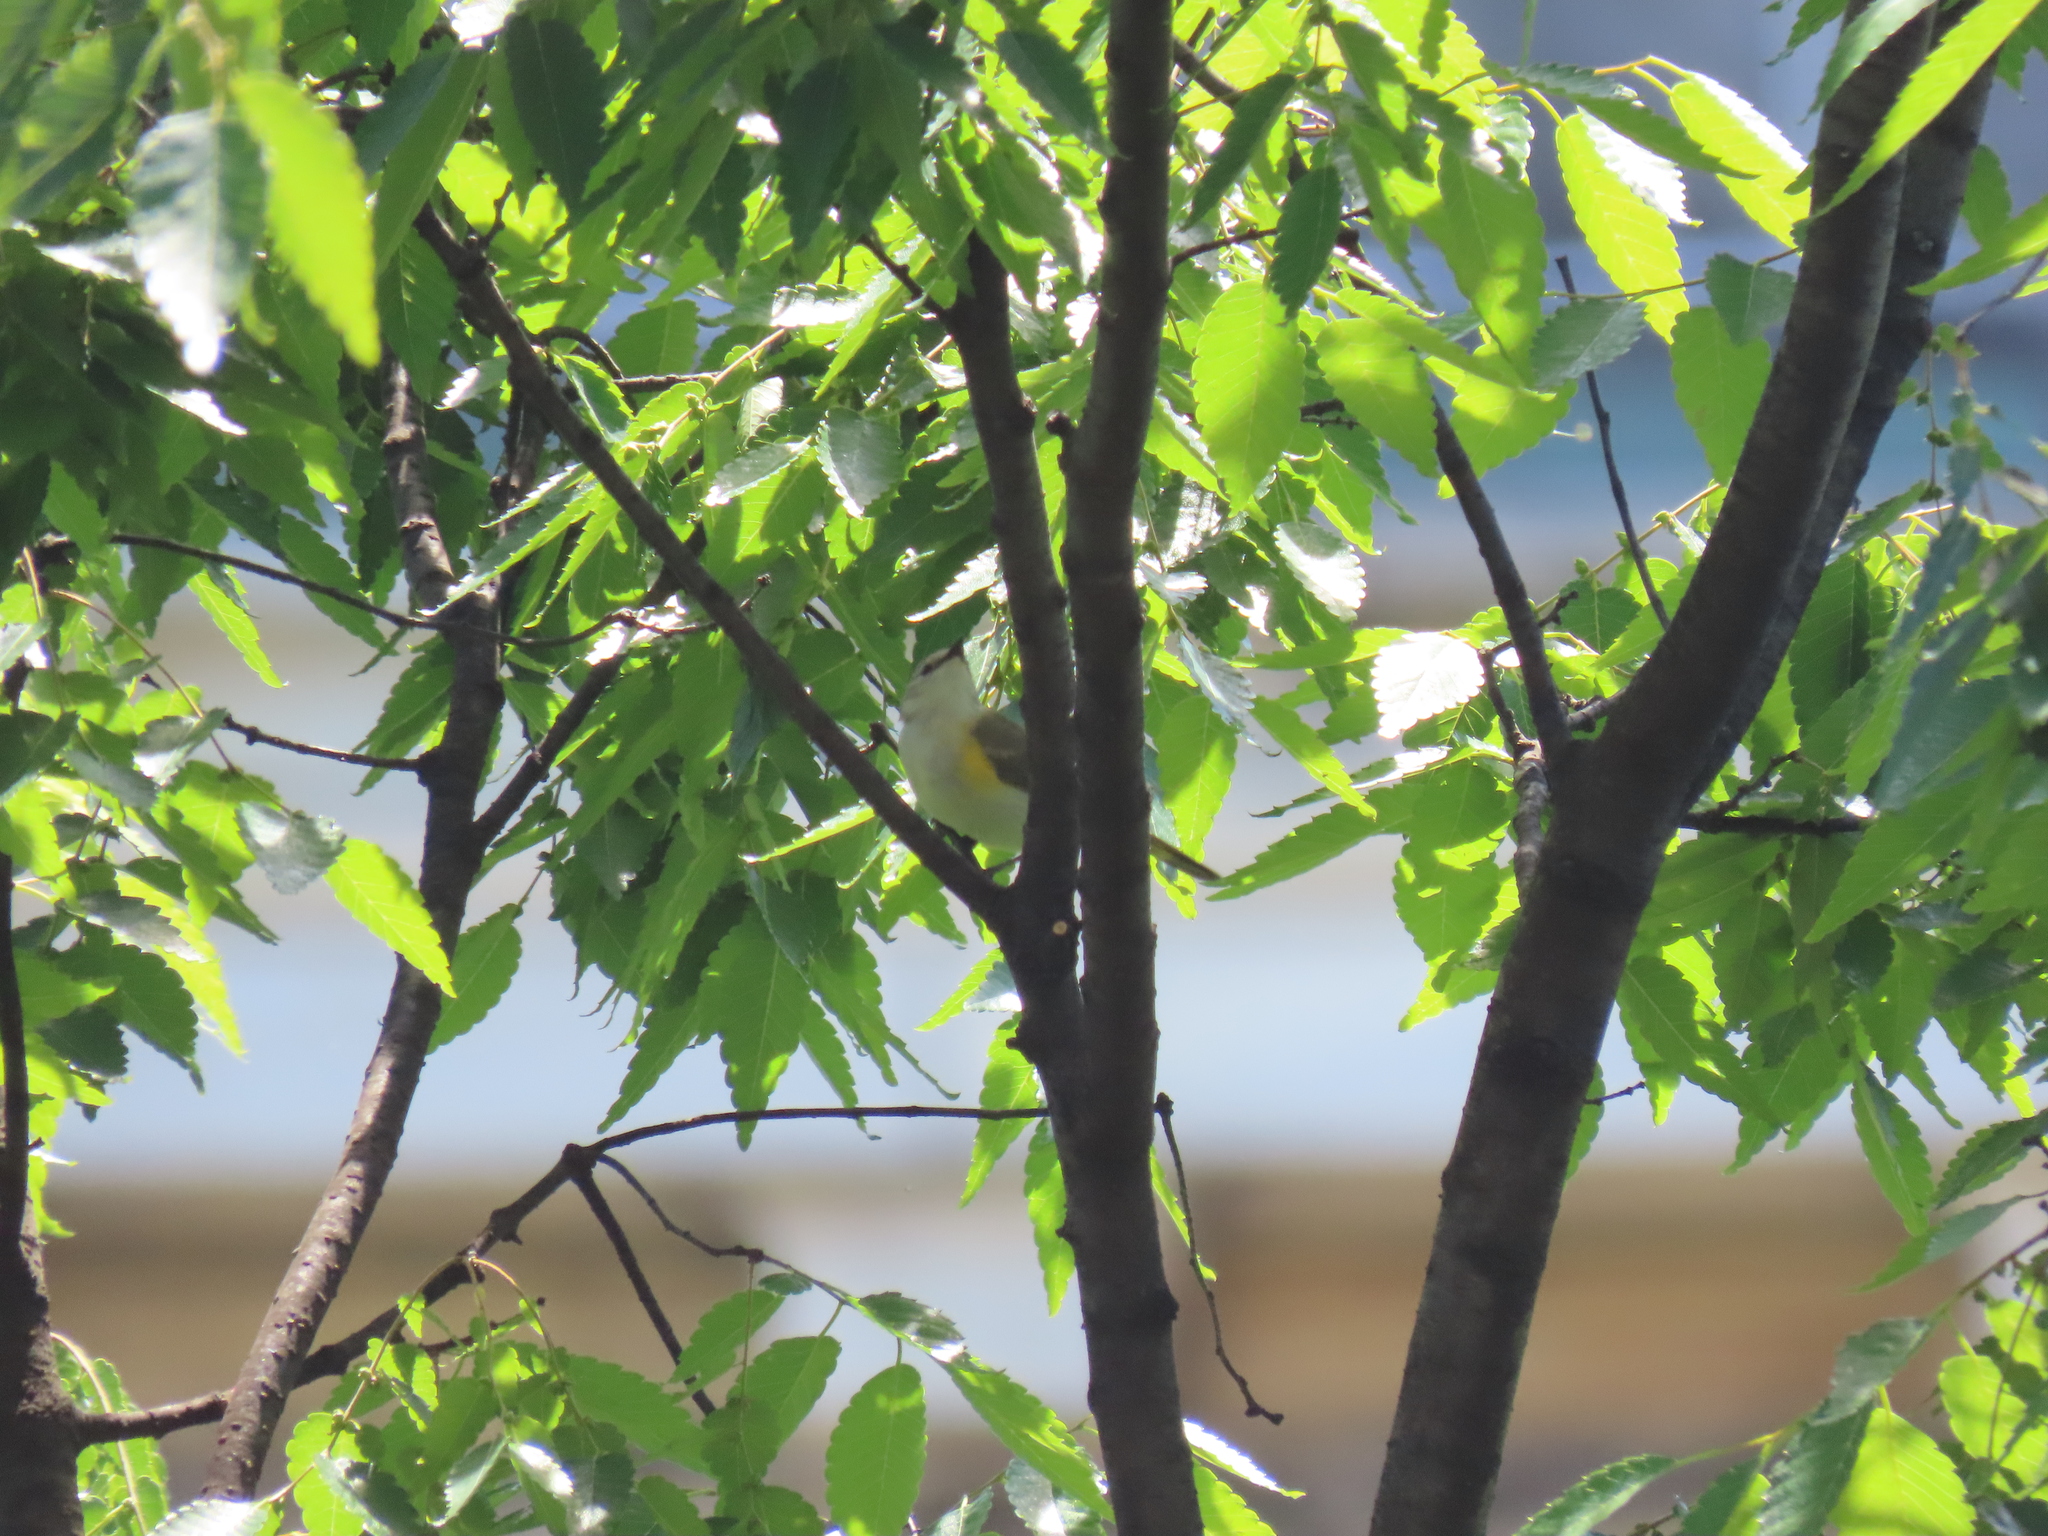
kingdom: Animalia
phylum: Chordata
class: Aves
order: Passeriformes
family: Parulidae
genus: Setophaga
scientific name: Setophaga ruticilla
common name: American redstart
